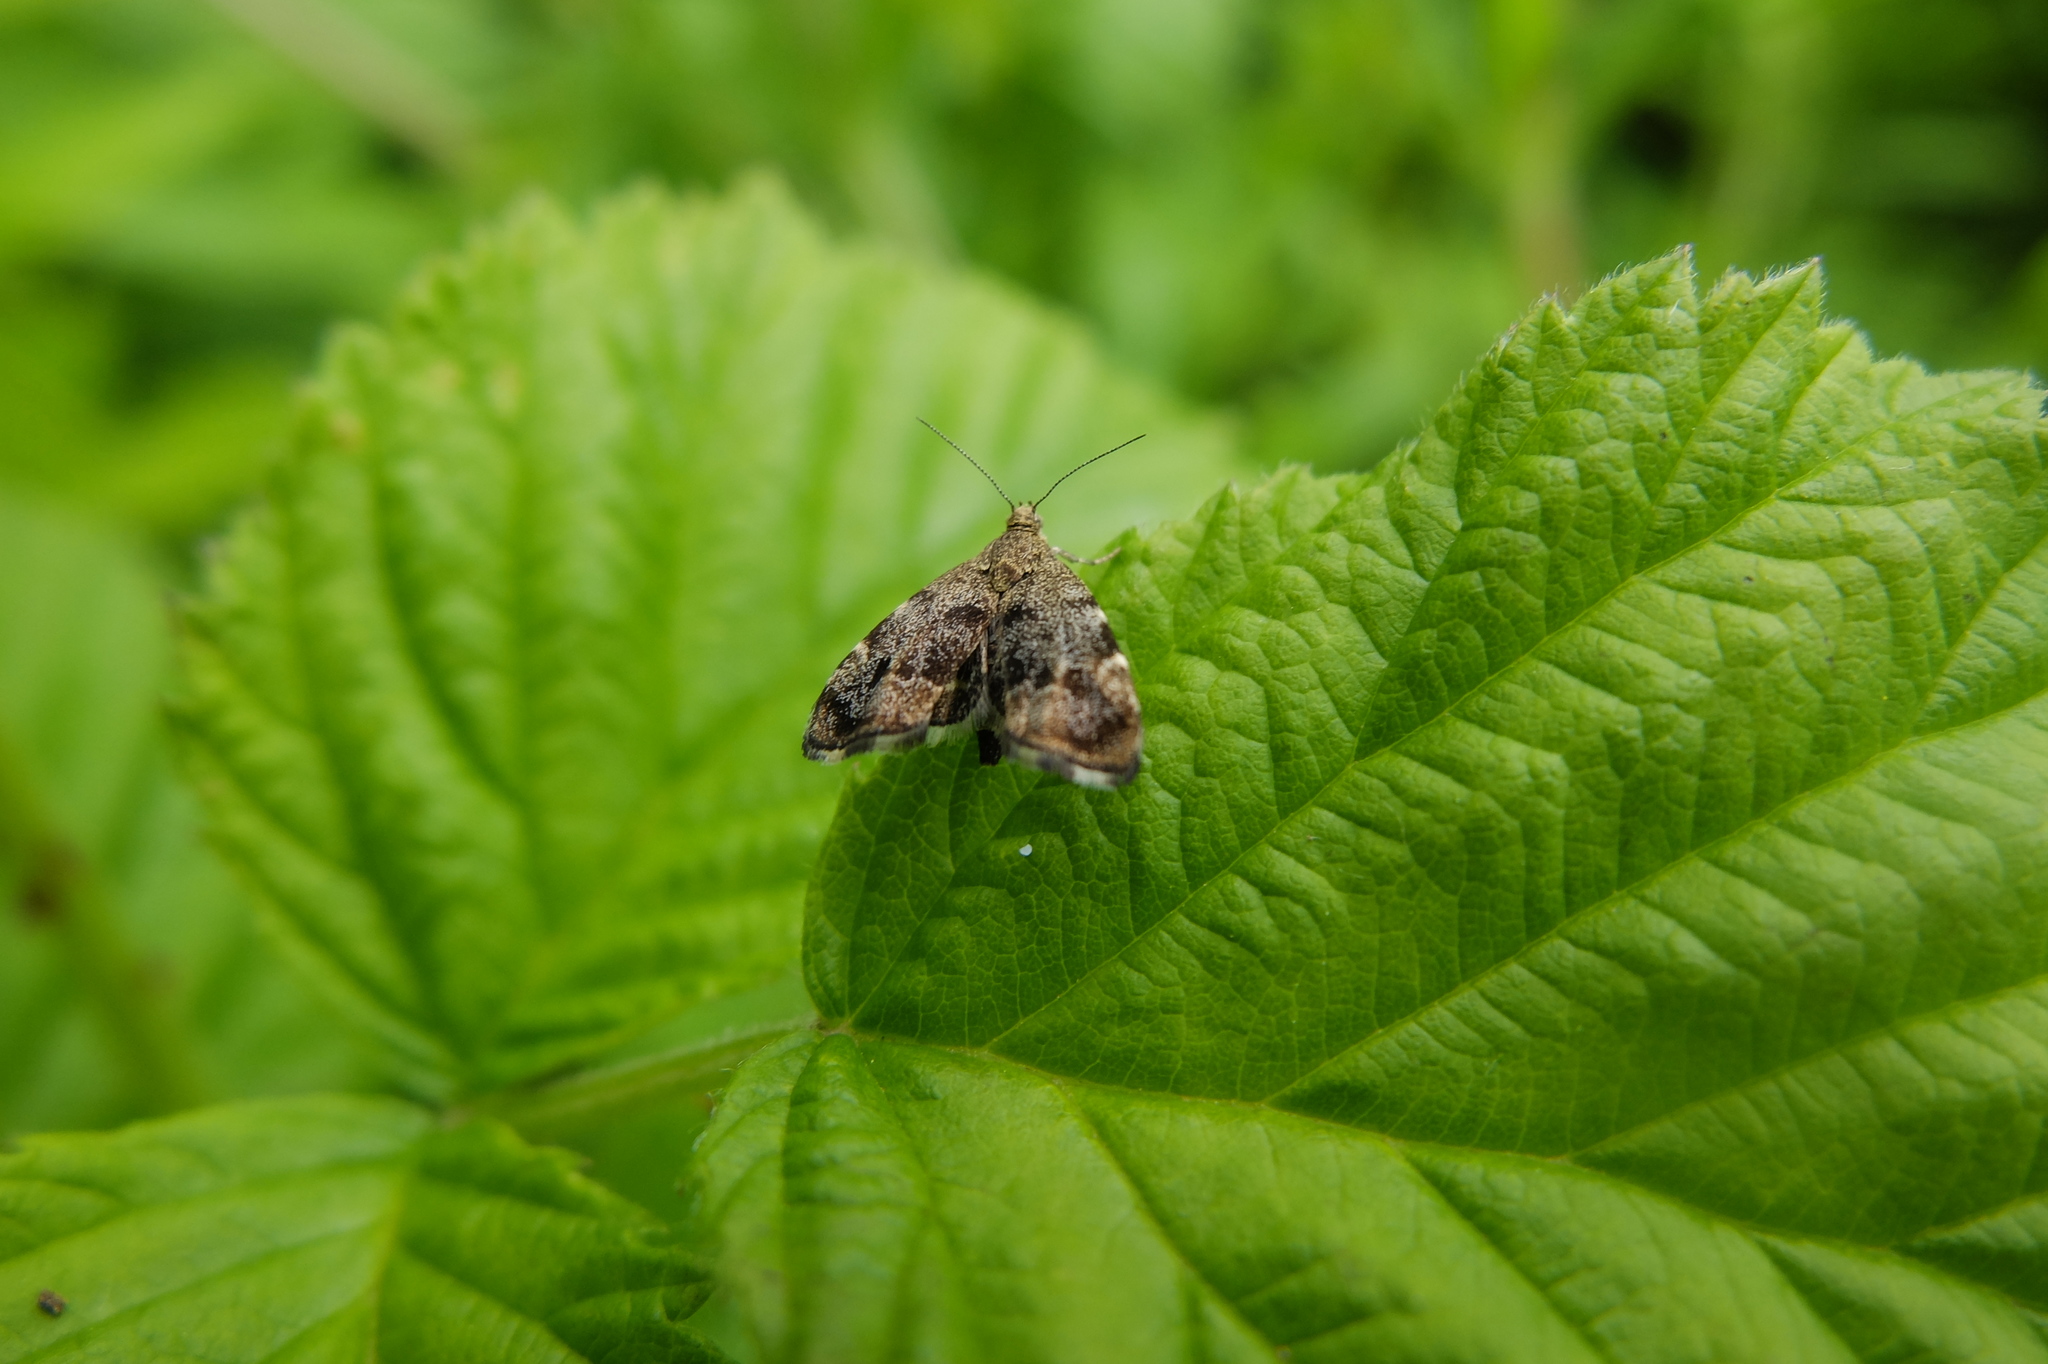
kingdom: Animalia
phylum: Arthropoda
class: Insecta
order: Lepidoptera
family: Choreutidae
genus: Anthophila
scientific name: Anthophila fabriciana
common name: Nettle-tap
